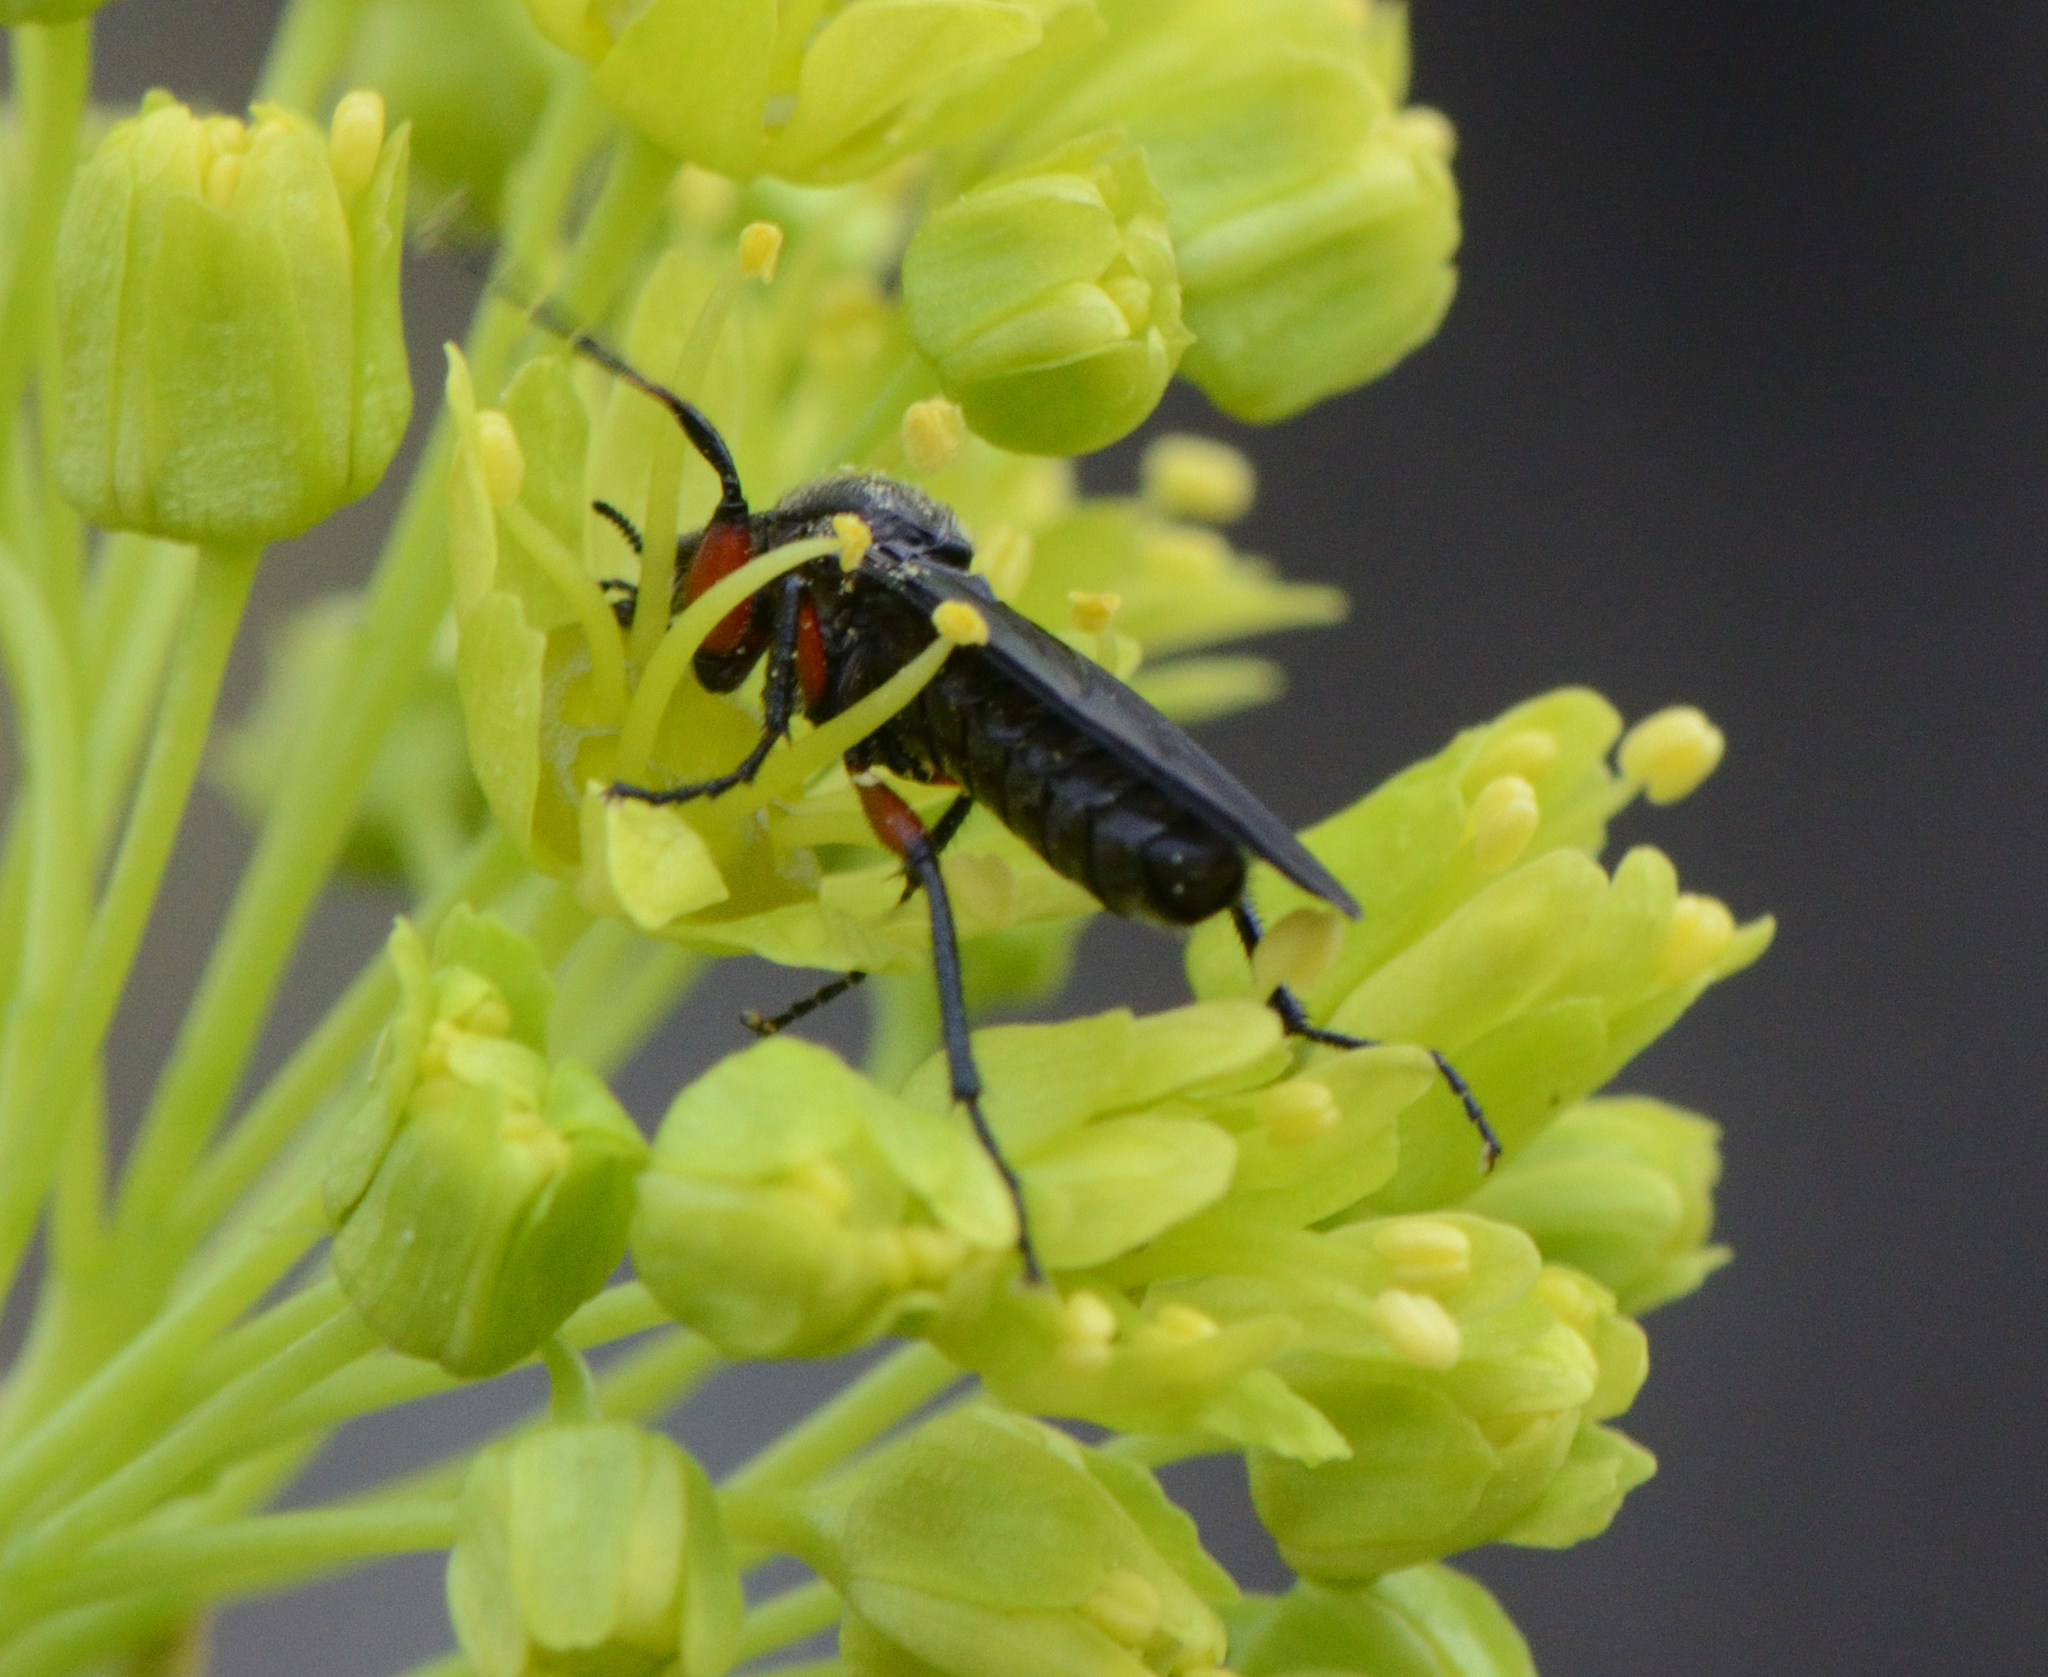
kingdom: Animalia
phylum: Arthropoda
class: Insecta
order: Diptera
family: Bibionidae
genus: Bibio
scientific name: Bibio femoratus
